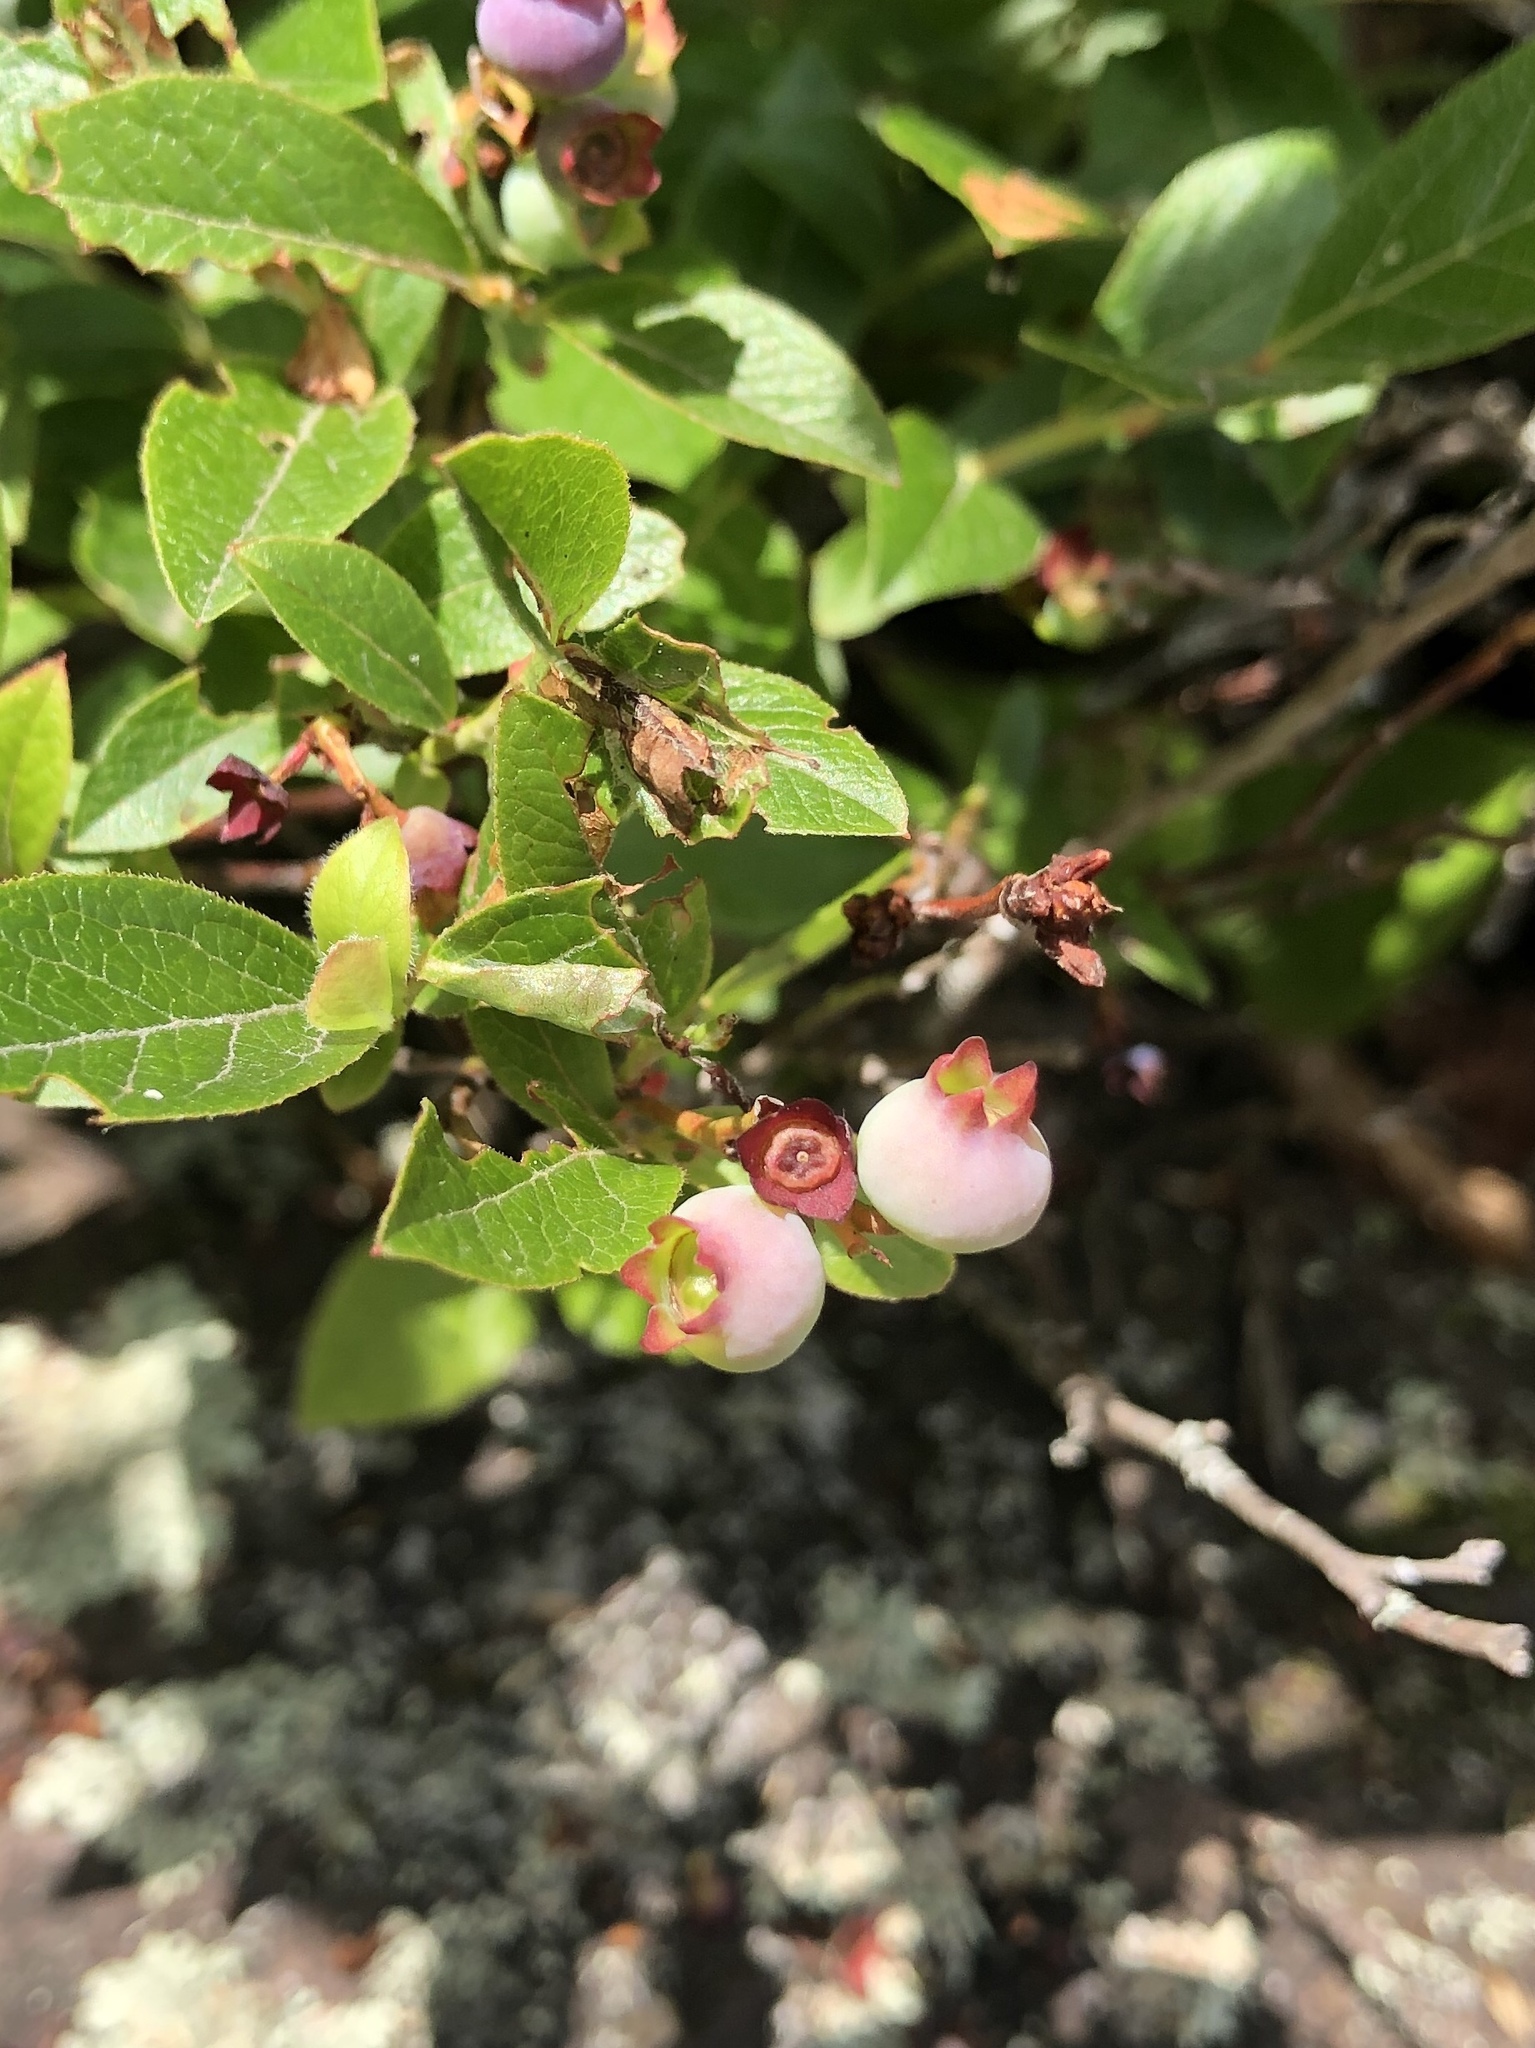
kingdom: Plantae
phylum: Tracheophyta
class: Magnoliopsida
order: Ericales
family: Ericaceae
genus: Vaccinium
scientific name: Vaccinium angustifolium
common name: Early lowbush blueberry
